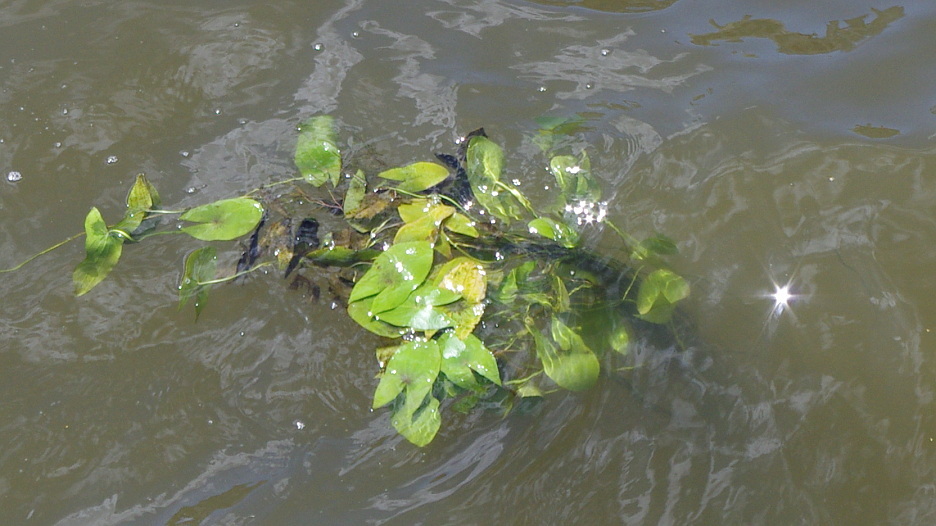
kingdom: Plantae
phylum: Tracheophyta
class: Liliopsida
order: Alismatales
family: Alismataceae
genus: Sagittaria
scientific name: Sagittaria sagittifolia
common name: Arrowhead
